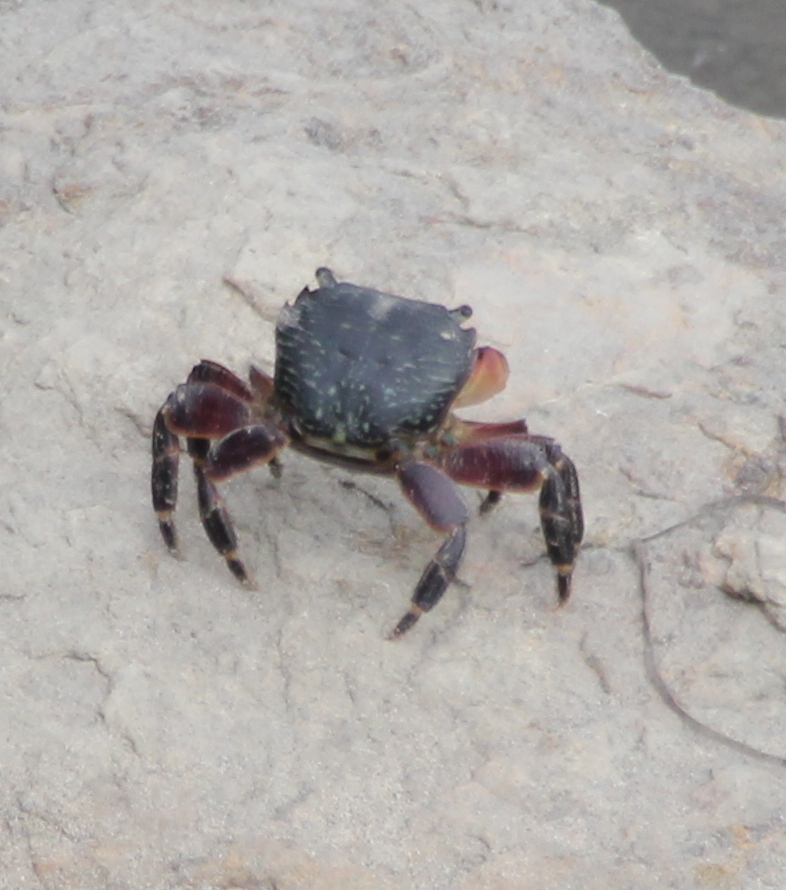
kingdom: Animalia
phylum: Arthropoda
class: Malacostraca
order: Decapoda
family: Grapsidae
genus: Pachygrapsus
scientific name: Pachygrapsus crassipes
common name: Striped shore crab
